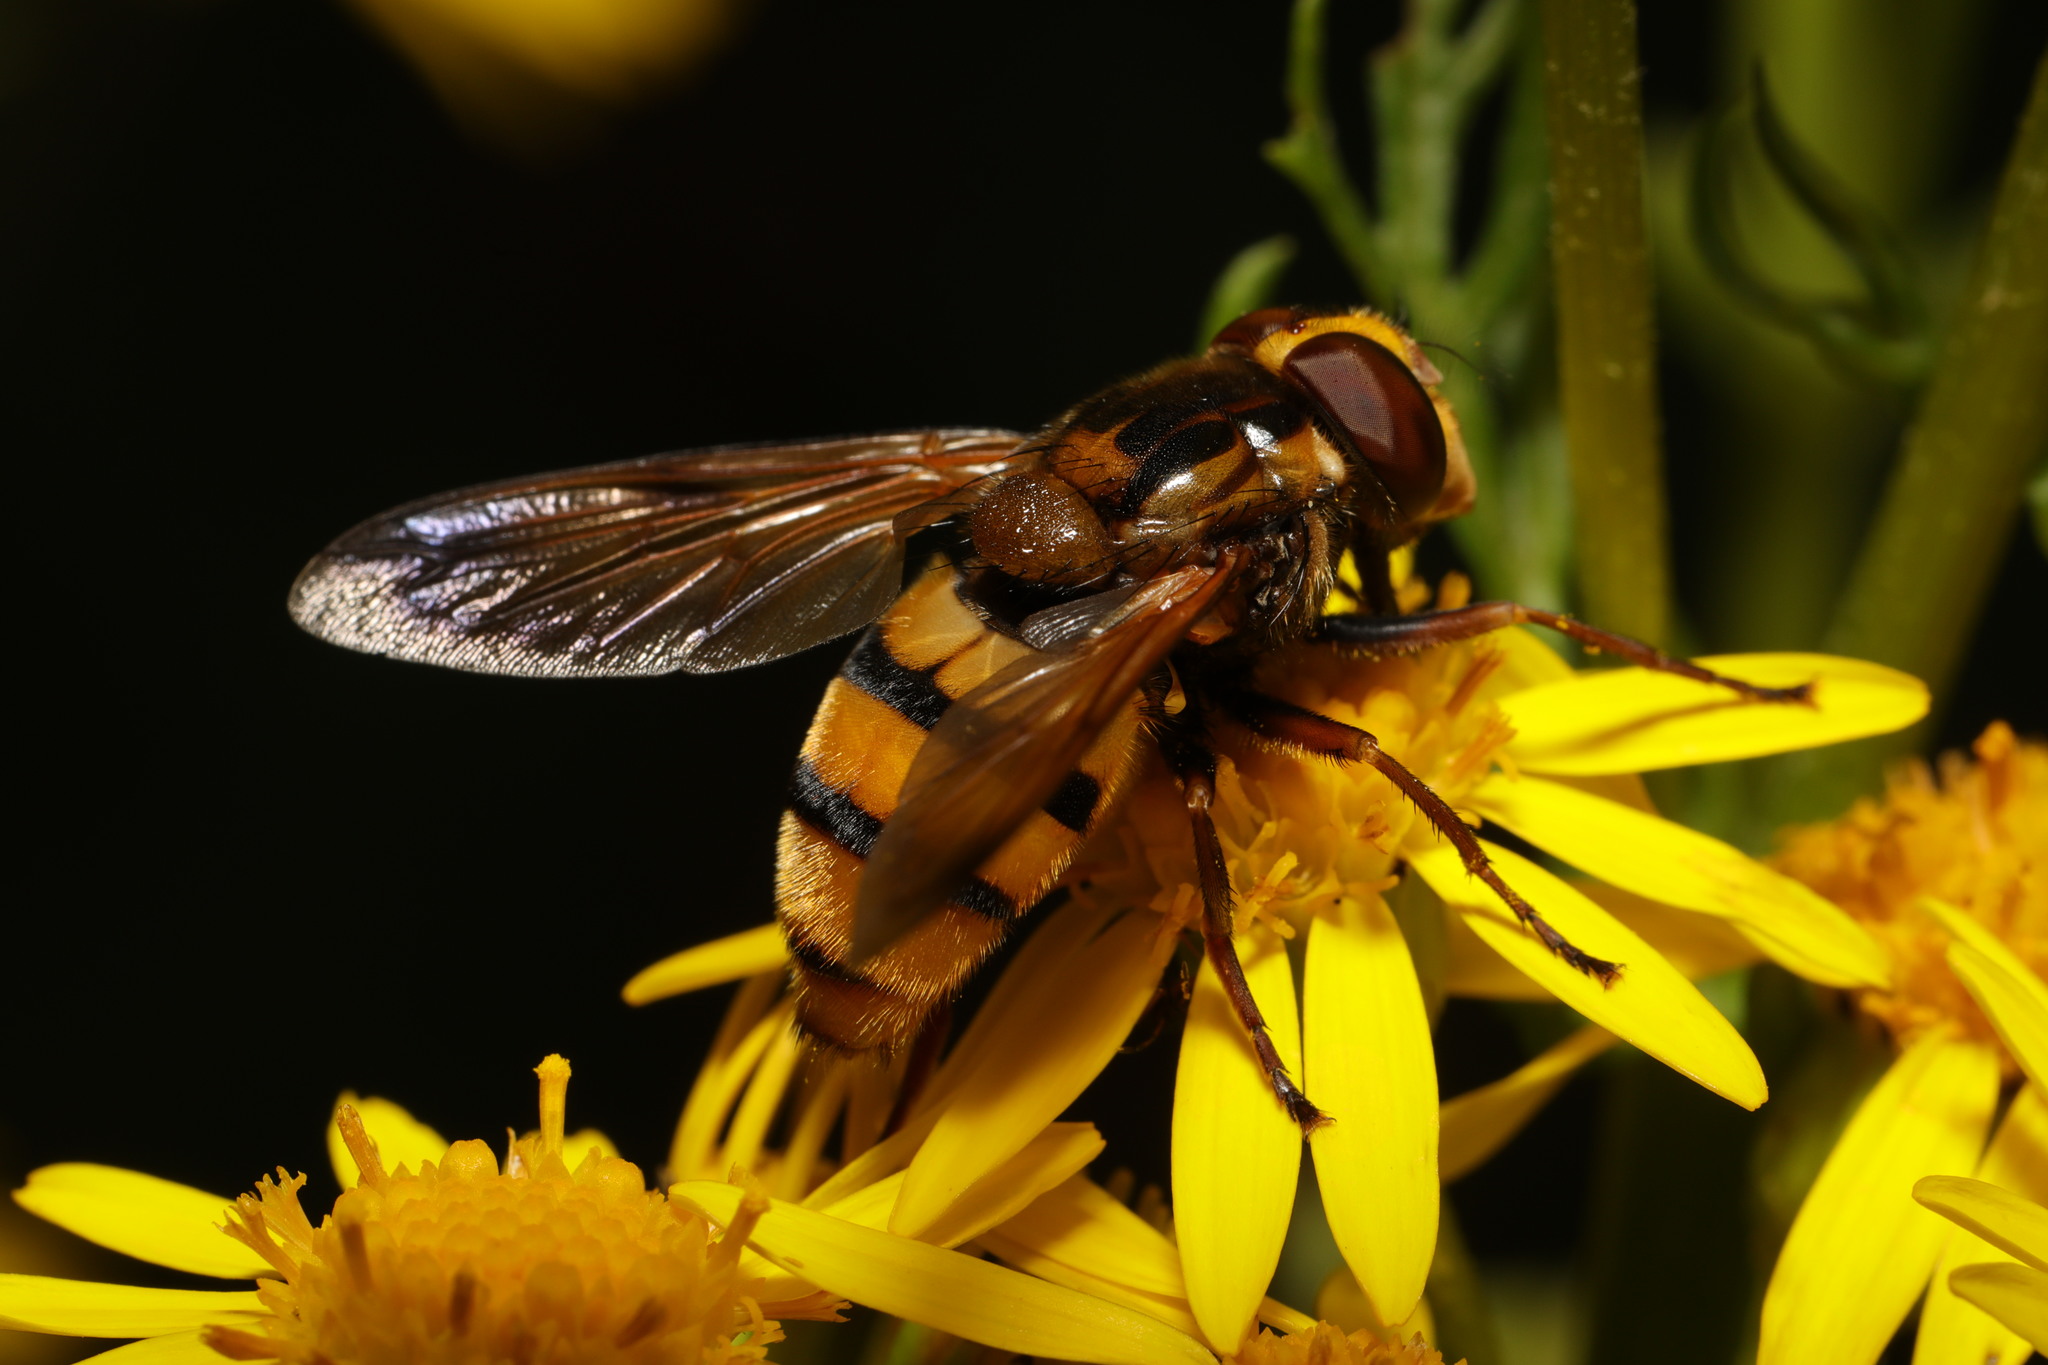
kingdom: Animalia
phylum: Arthropoda
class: Insecta
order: Diptera
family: Syrphidae
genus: Volucella
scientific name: Volucella inanis
